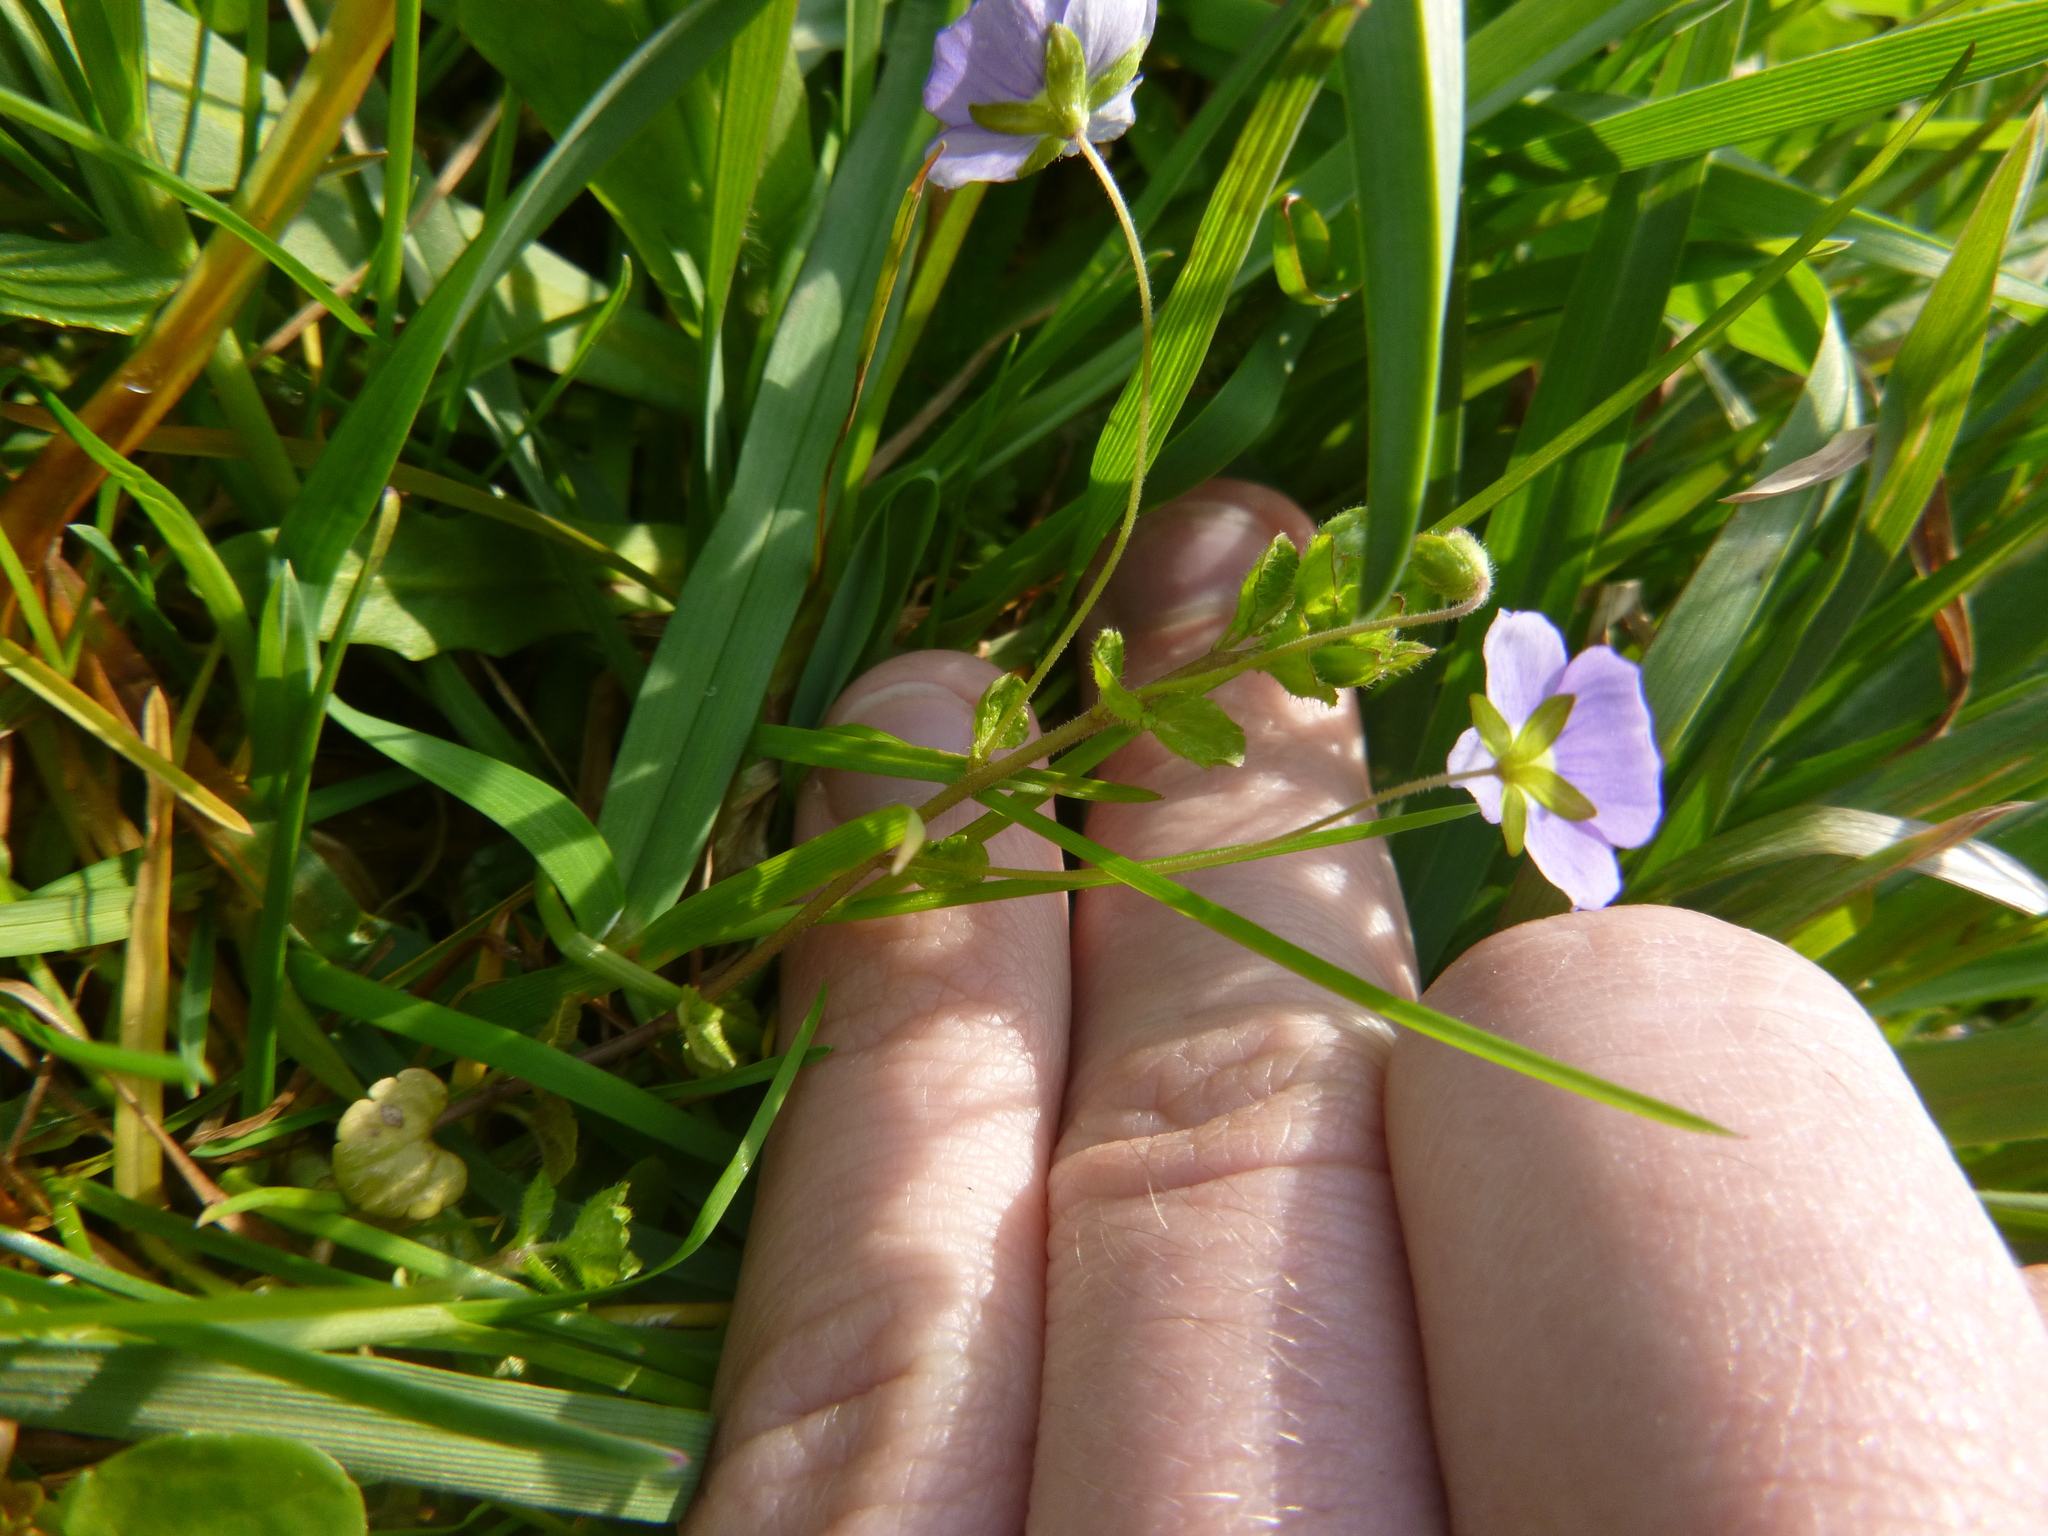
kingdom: Plantae
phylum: Tracheophyta
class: Magnoliopsida
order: Lamiales
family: Plantaginaceae
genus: Veronica
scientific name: Veronica filiformis
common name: Slender speedwell
